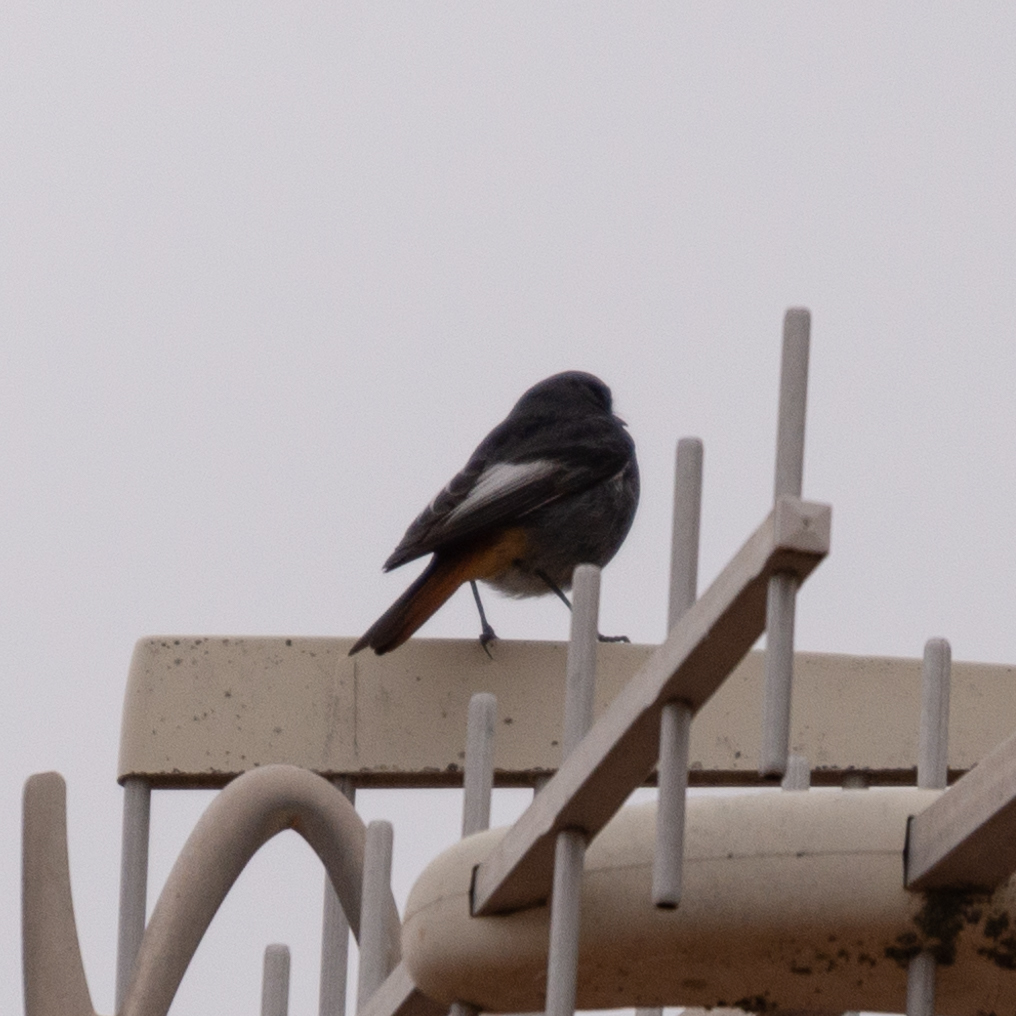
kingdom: Animalia
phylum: Chordata
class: Aves
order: Passeriformes
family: Muscicapidae
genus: Phoenicurus
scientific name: Phoenicurus ochruros
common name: Black redstart
